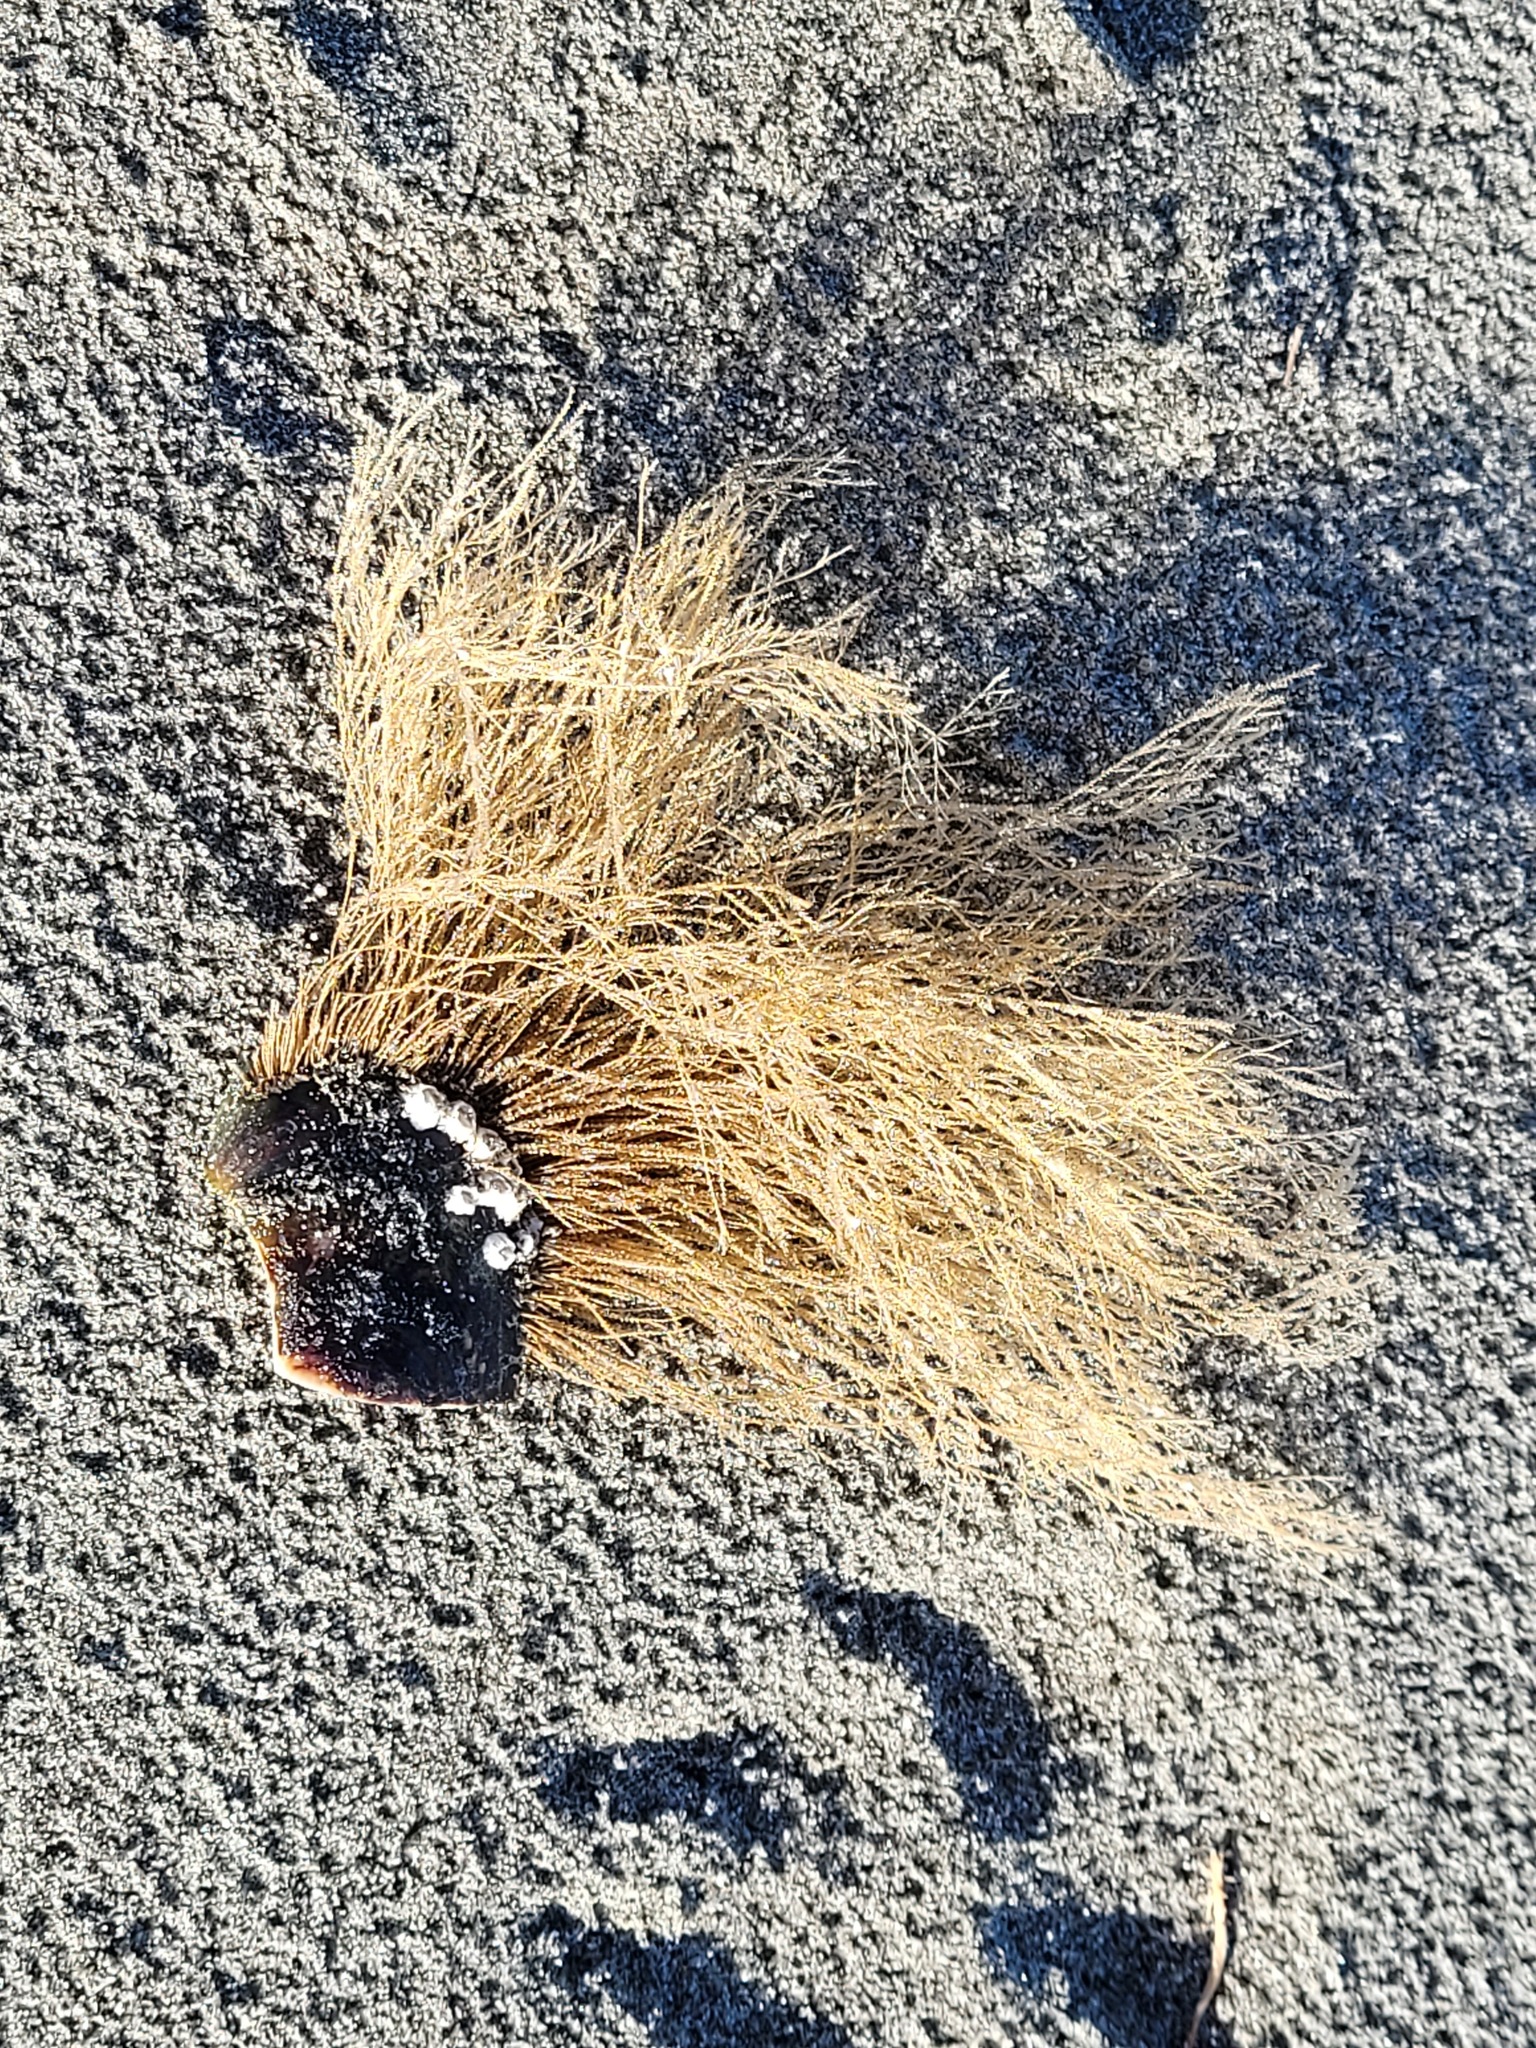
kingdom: Animalia
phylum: Cnidaria
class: Hydrozoa
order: Leptothecata
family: Sertulariidae
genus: Amphisbetia
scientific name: Amphisbetia bispinosa
